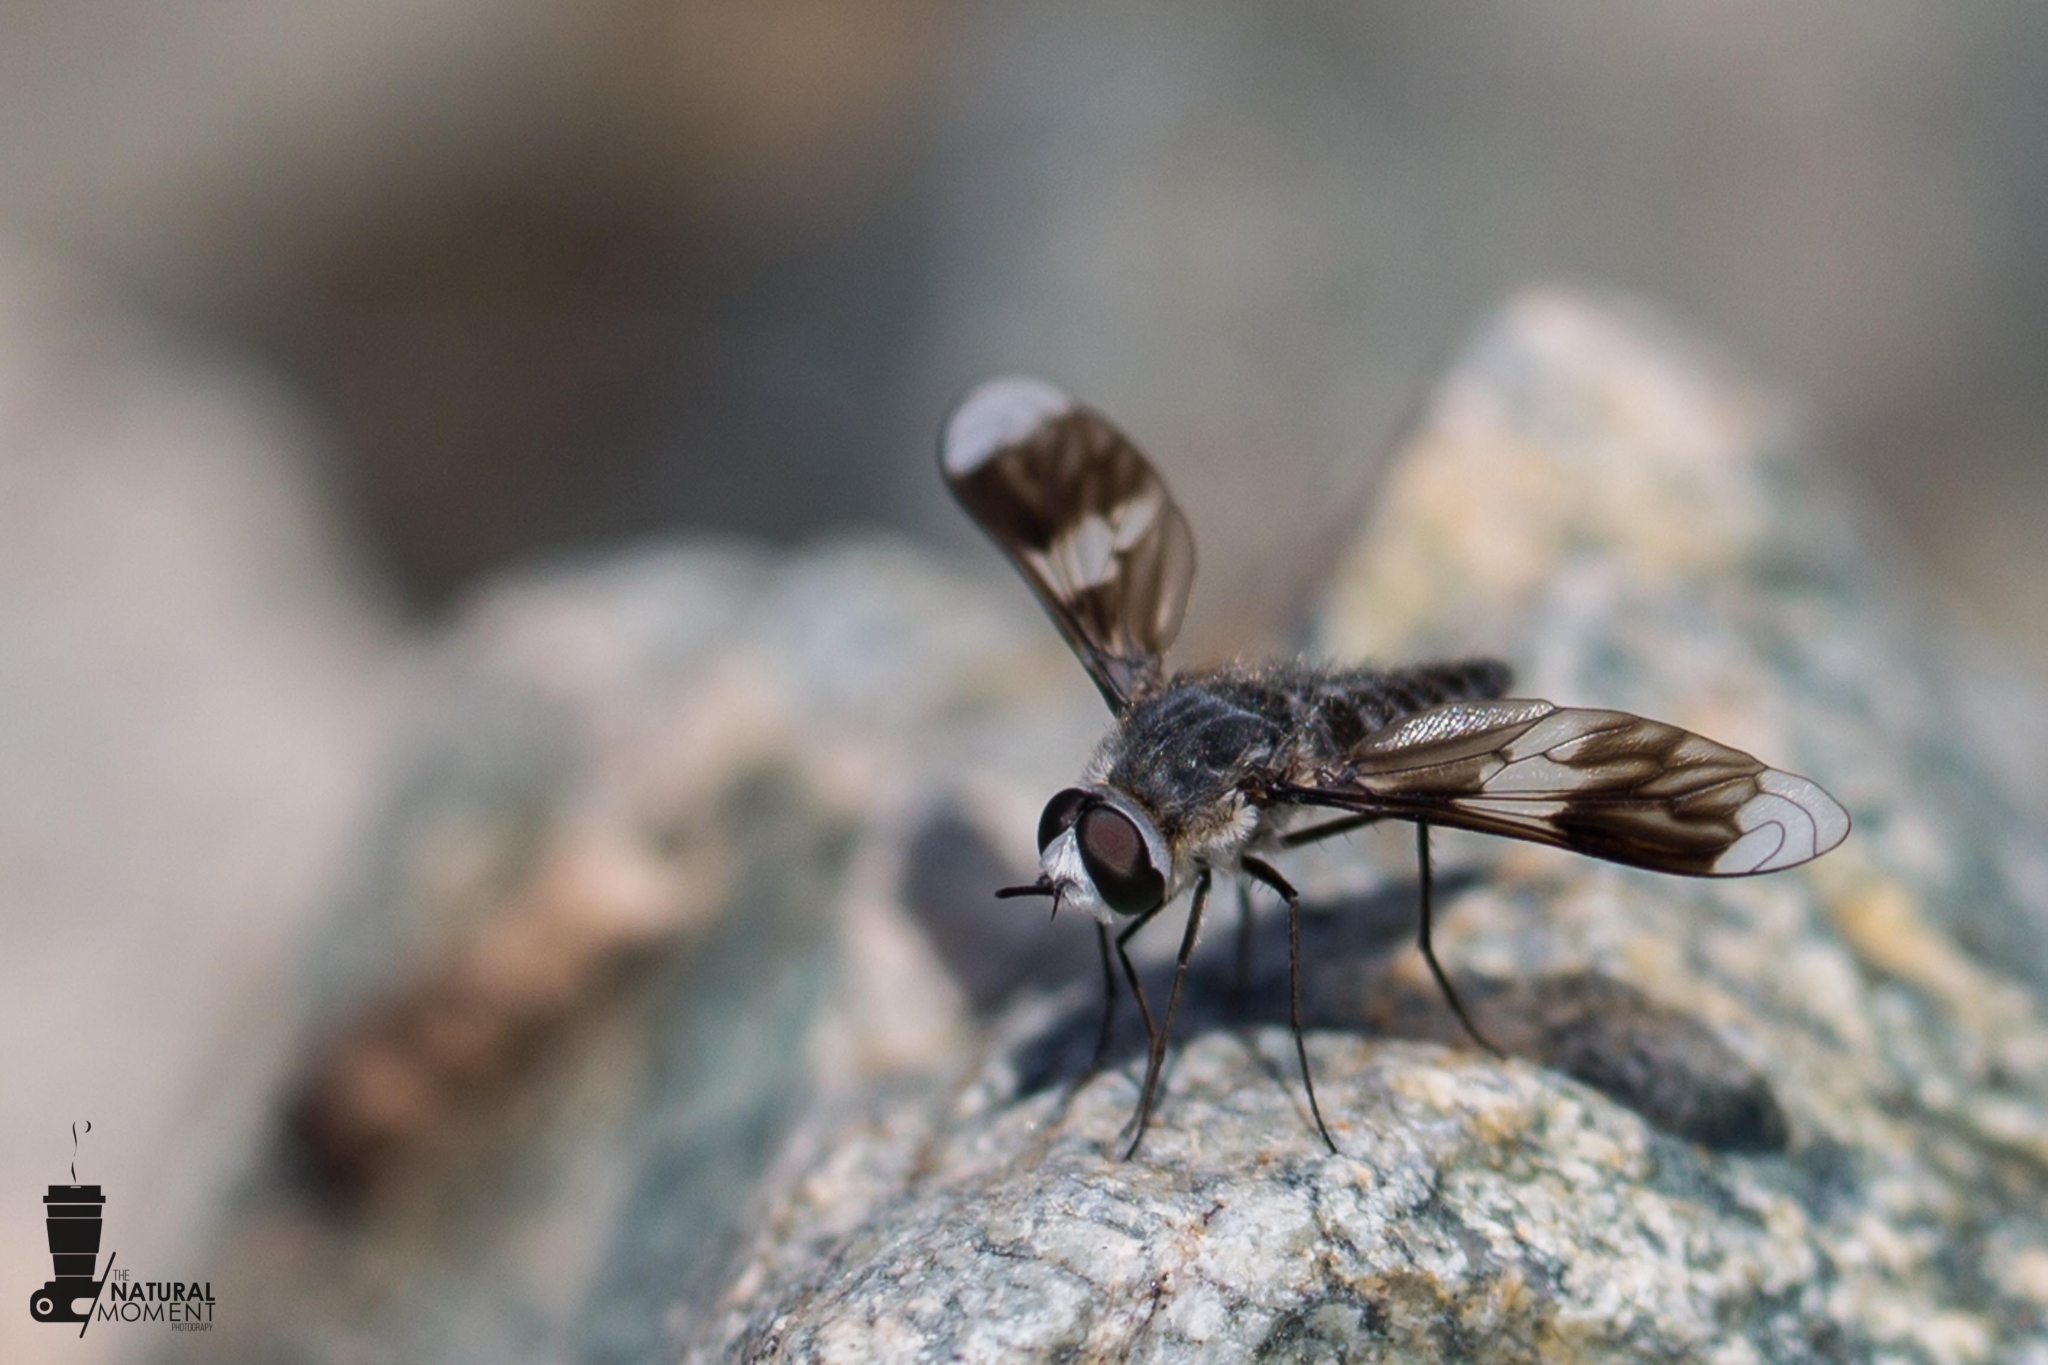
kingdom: Animalia
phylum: Arthropoda
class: Insecta
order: Diptera
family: Bombyliidae
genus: Macrocondyla
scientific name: Macrocondyla consobrina
